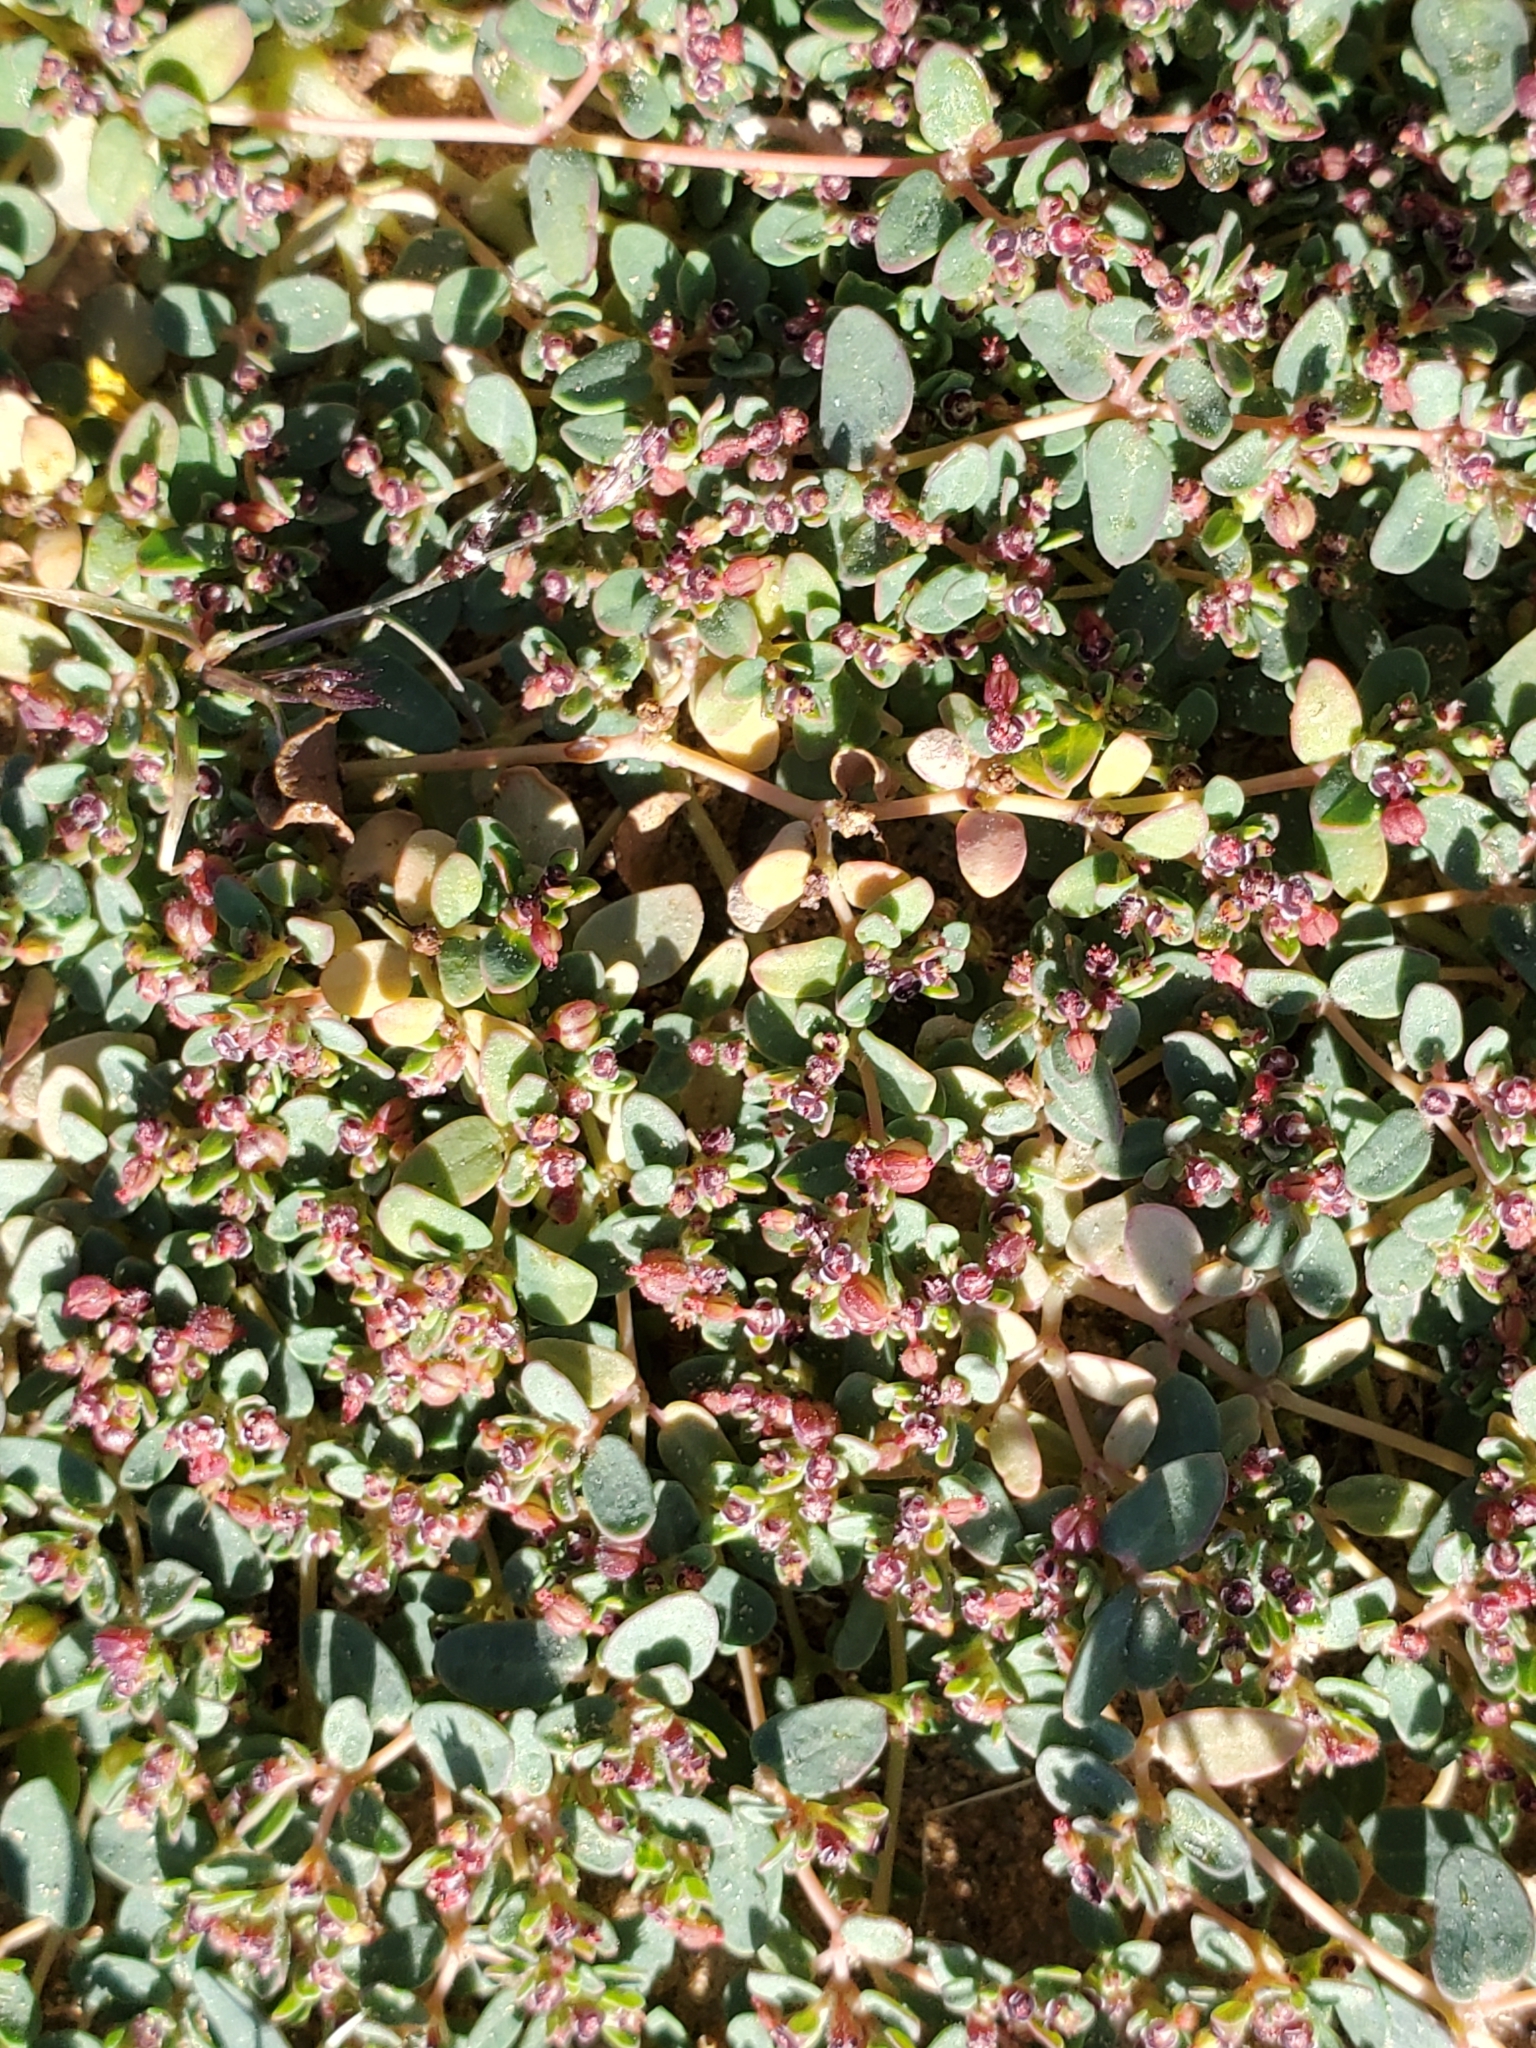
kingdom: Plantae
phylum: Tracheophyta
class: Magnoliopsida
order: Malpighiales
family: Euphorbiaceae
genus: Euphorbia
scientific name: Euphorbia polycarpa
